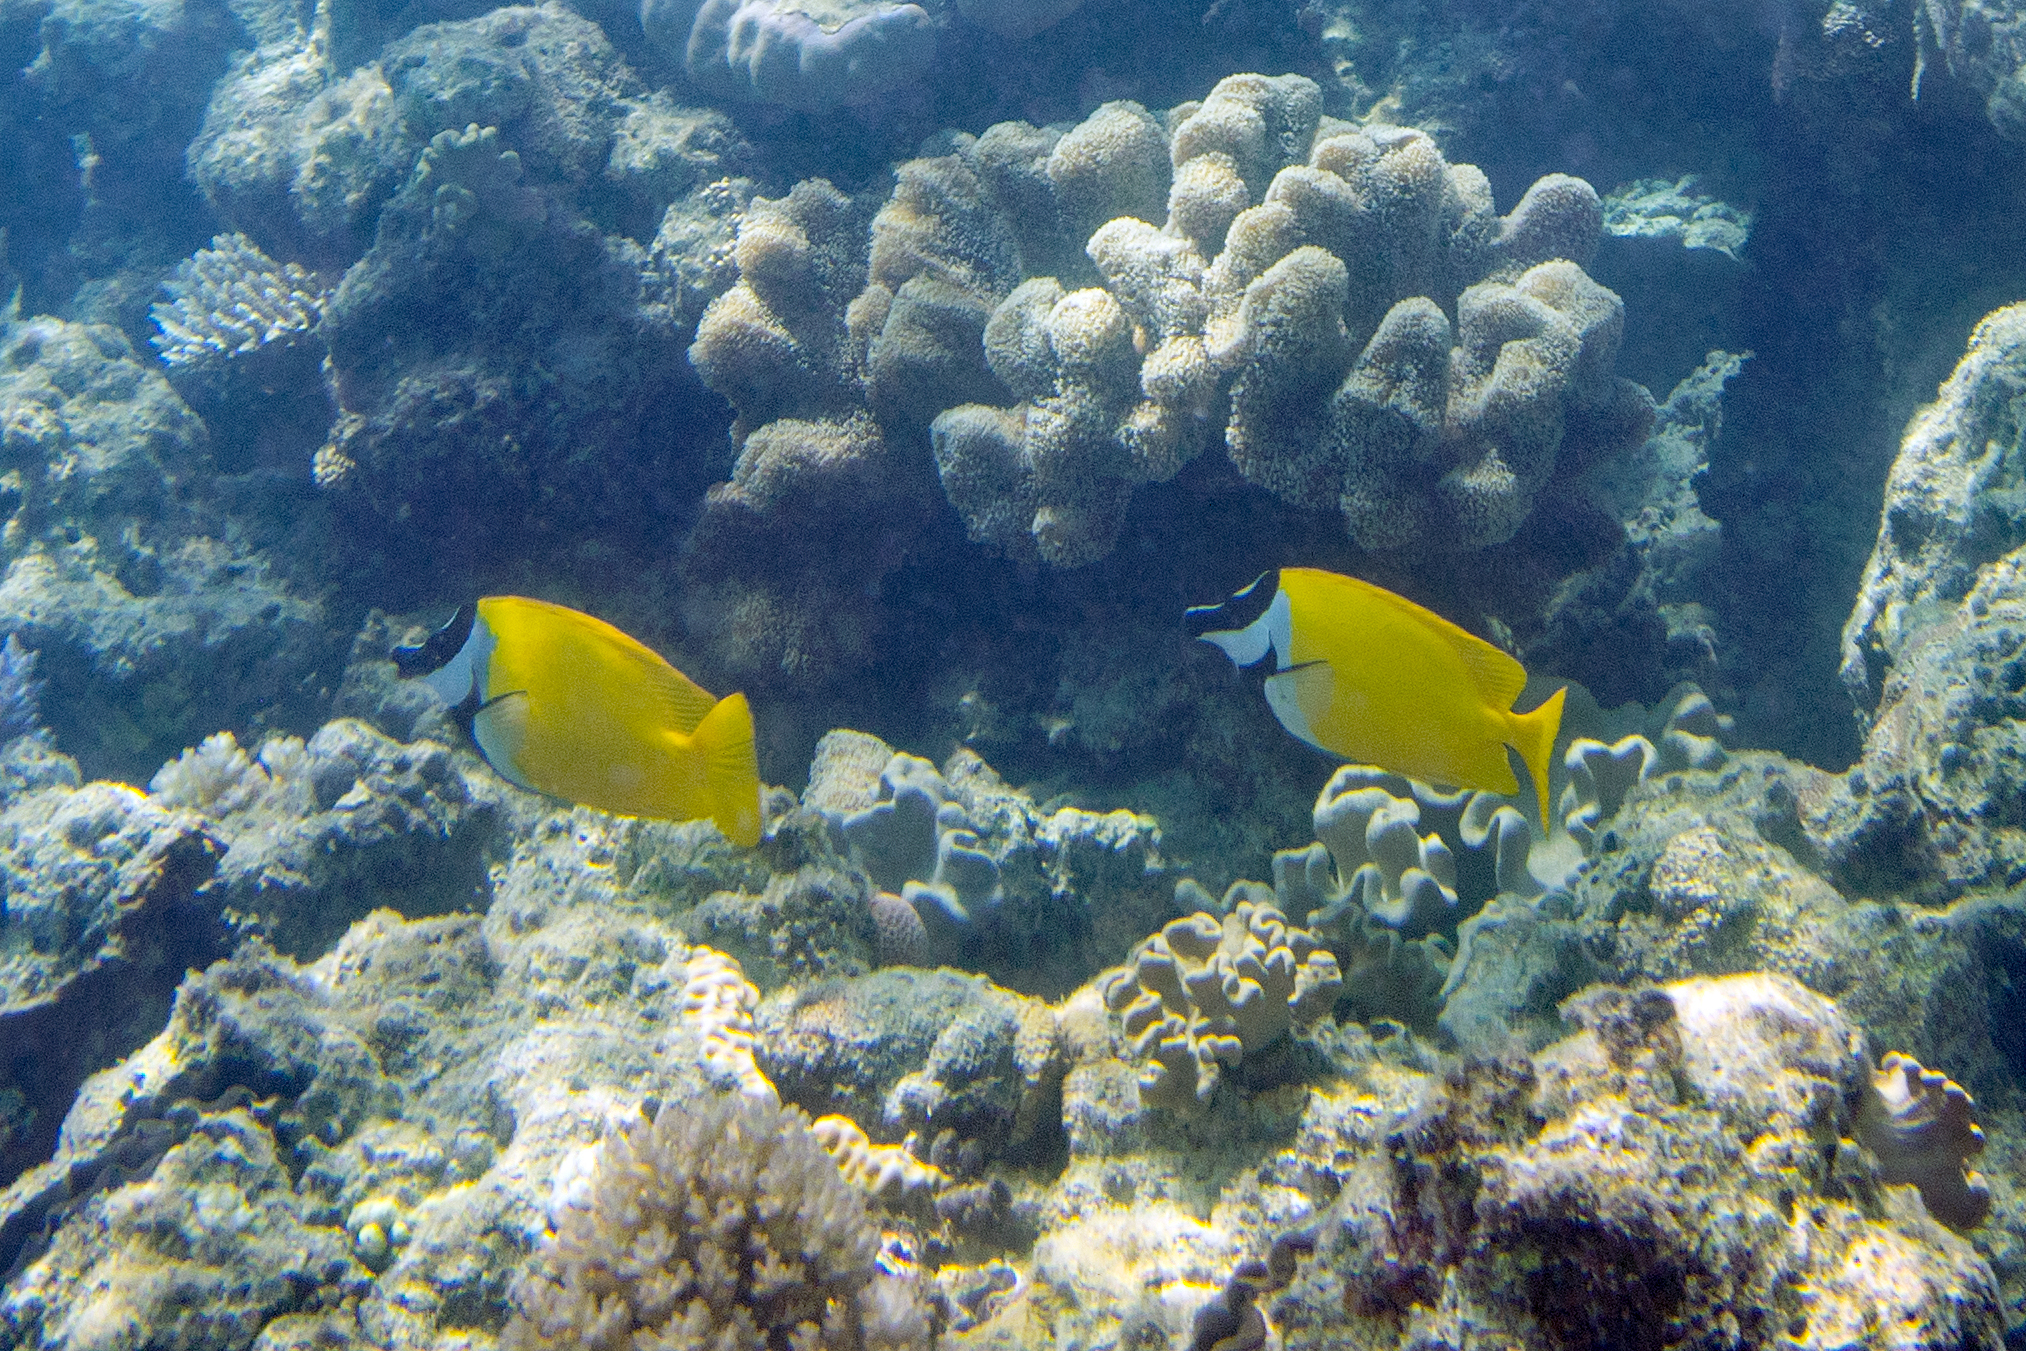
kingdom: Animalia
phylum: Chordata
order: Perciformes
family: Siganidae
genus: Siganus
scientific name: Siganus vulpinus
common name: Foxface
